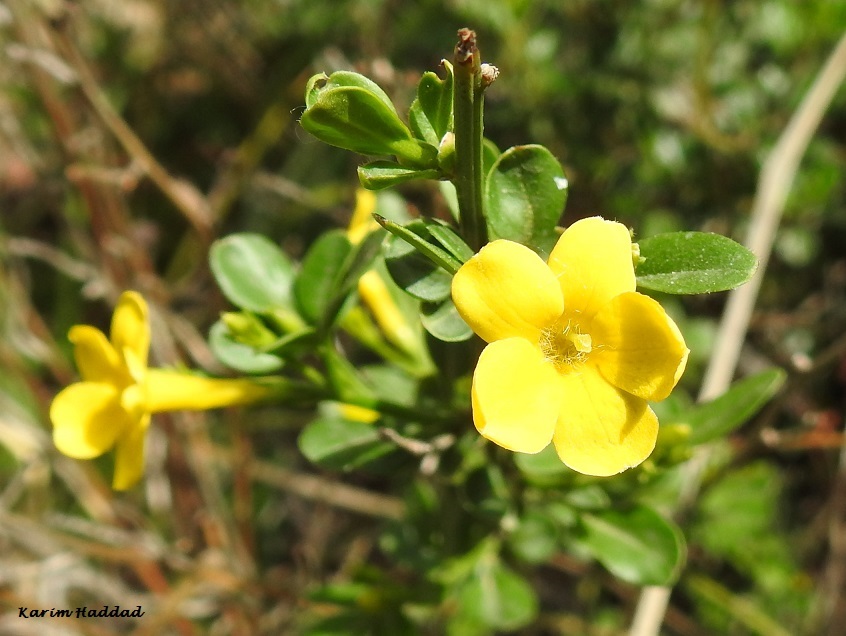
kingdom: Plantae
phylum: Tracheophyta
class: Magnoliopsida
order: Lamiales
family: Oleaceae
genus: Chrysojasminum
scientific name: Chrysojasminum fruticans
